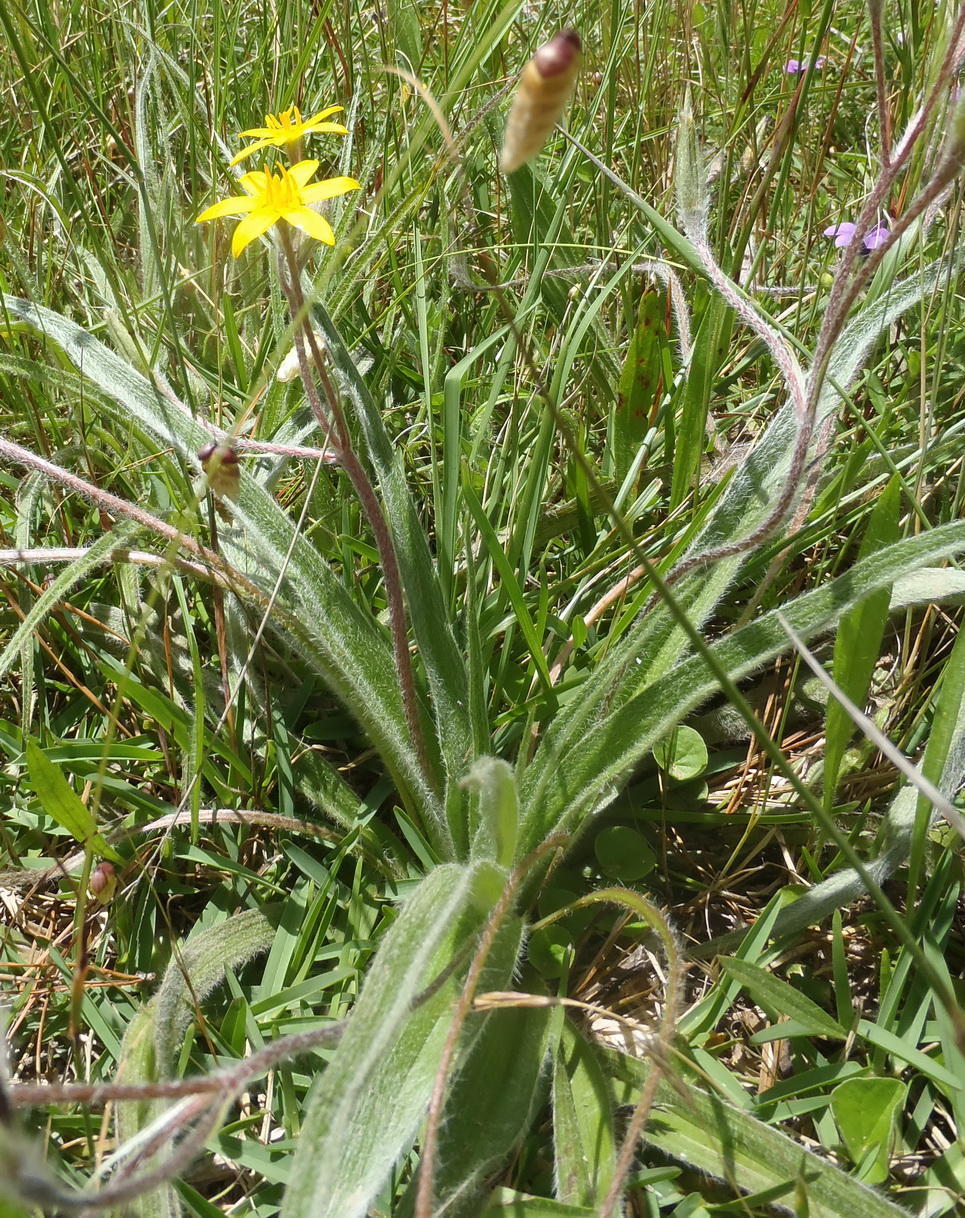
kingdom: Plantae
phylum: Tracheophyta
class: Liliopsida
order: Asparagales
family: Hypoxidaceae
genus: Hypoxis
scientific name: Hypoxis sobolifera
